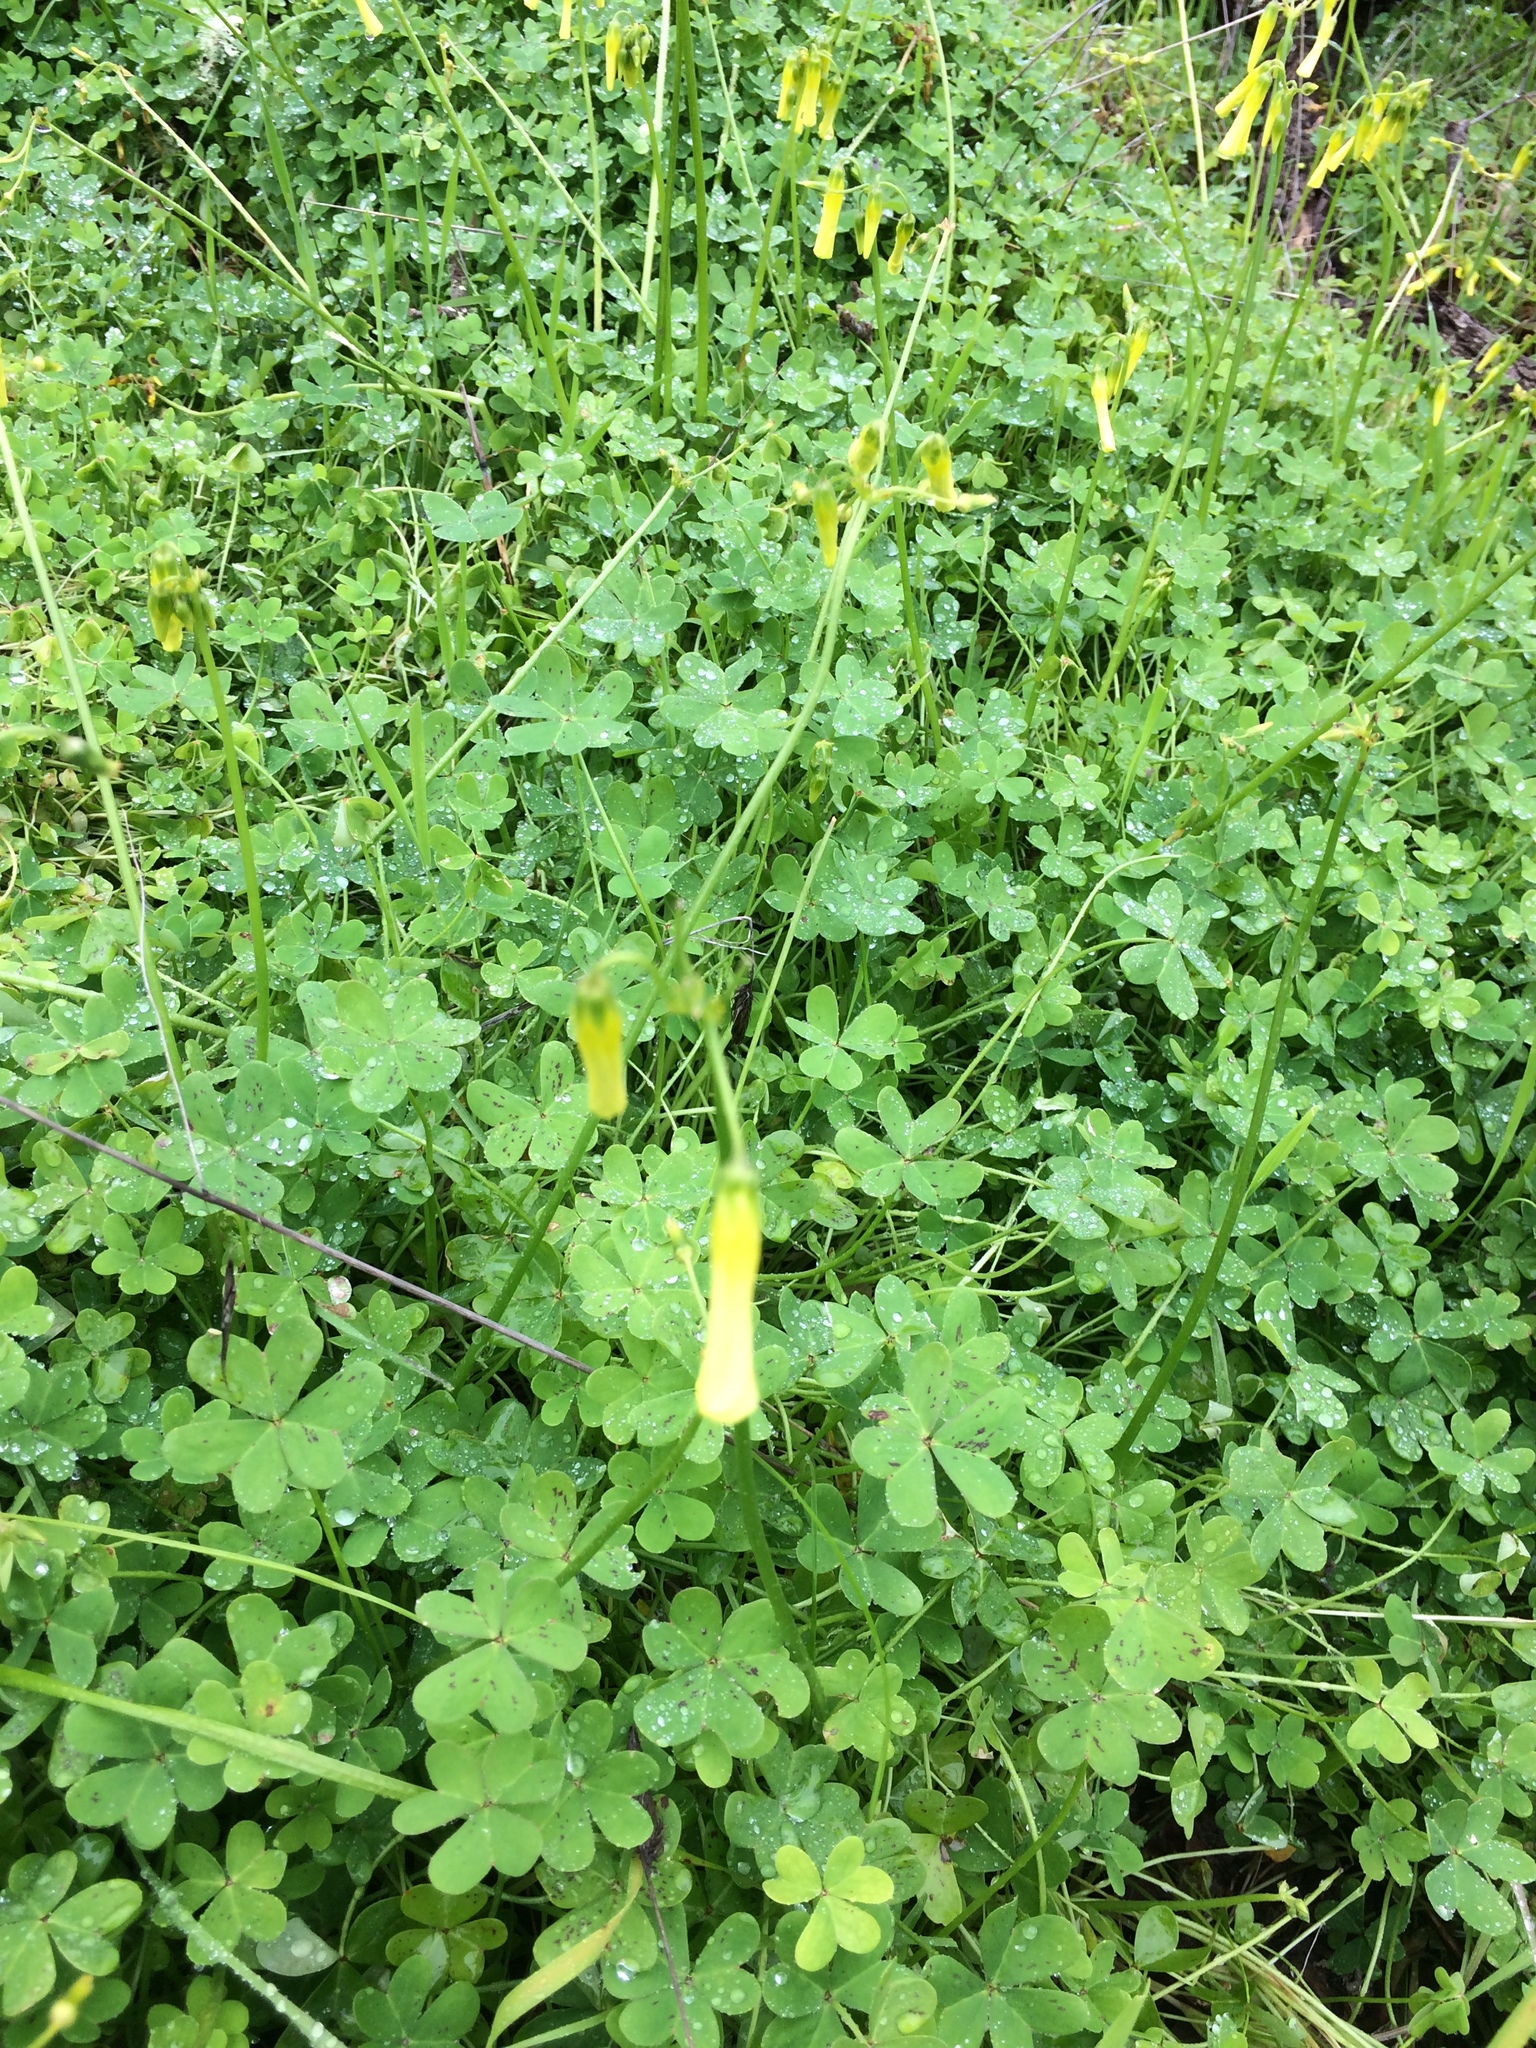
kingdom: Plantae
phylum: Tracheophyta
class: Magnoliopsida
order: Oxalidales
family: Oxalidaceae
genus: Oxalis
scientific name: Oxalis pes-caprae
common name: Bermuda-buttercup
